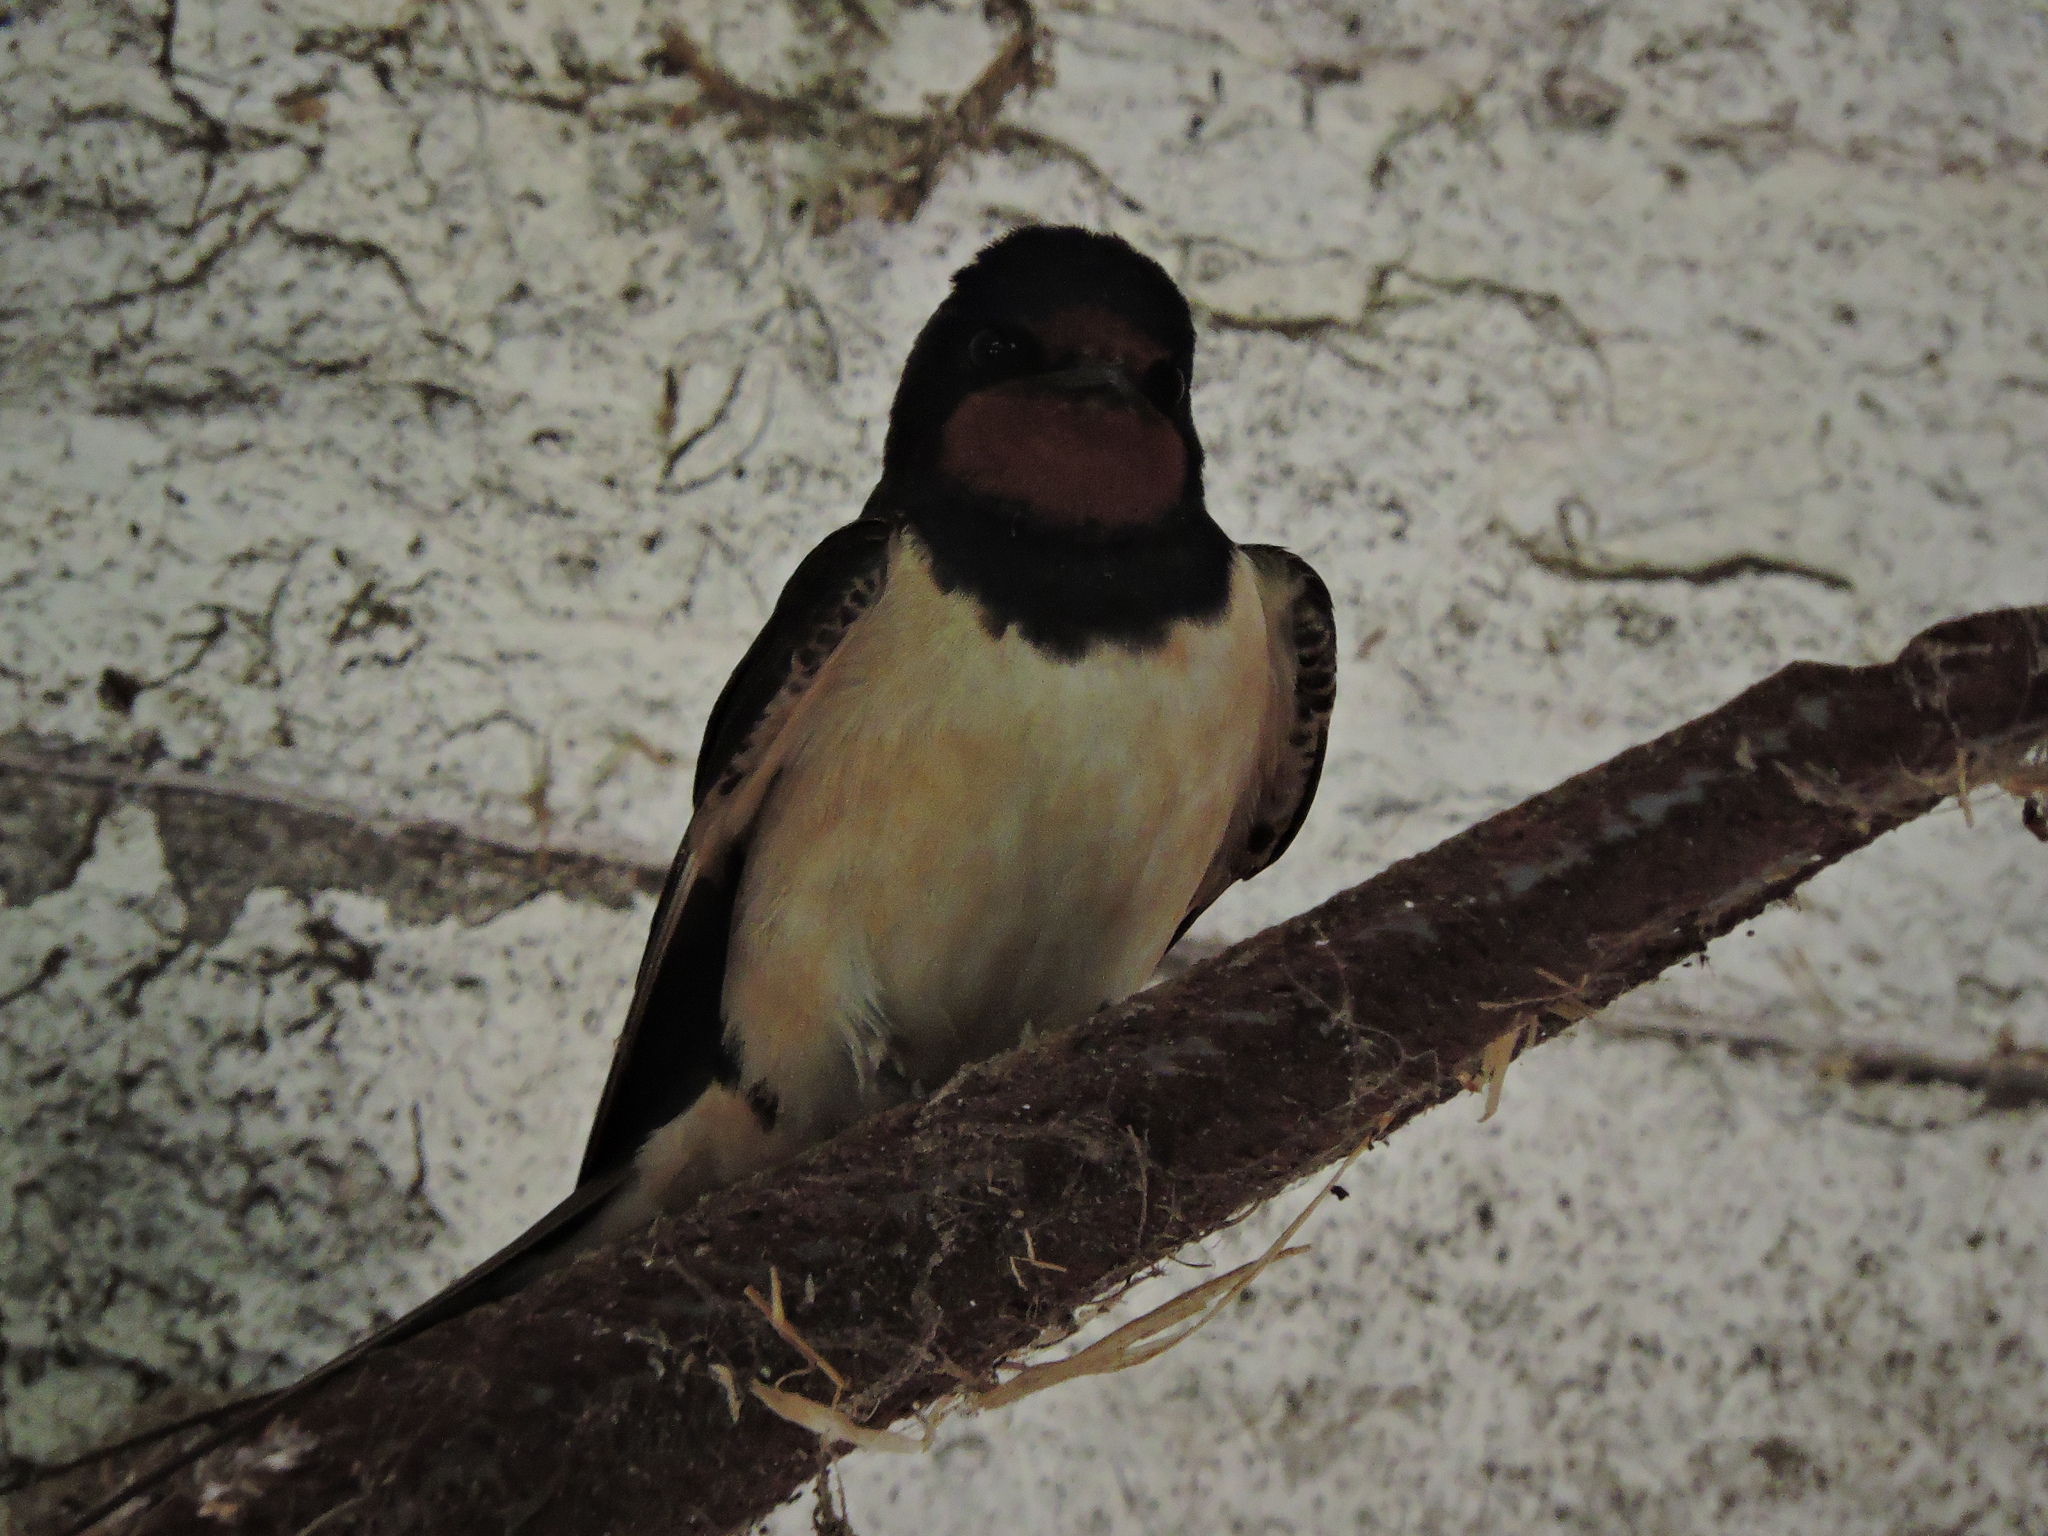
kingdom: Animalia
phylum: Chordata
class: Aves
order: Passeriformes
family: Hirundinidae
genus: Hirundo
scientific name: Hirundo rustica
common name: Barn swallow
